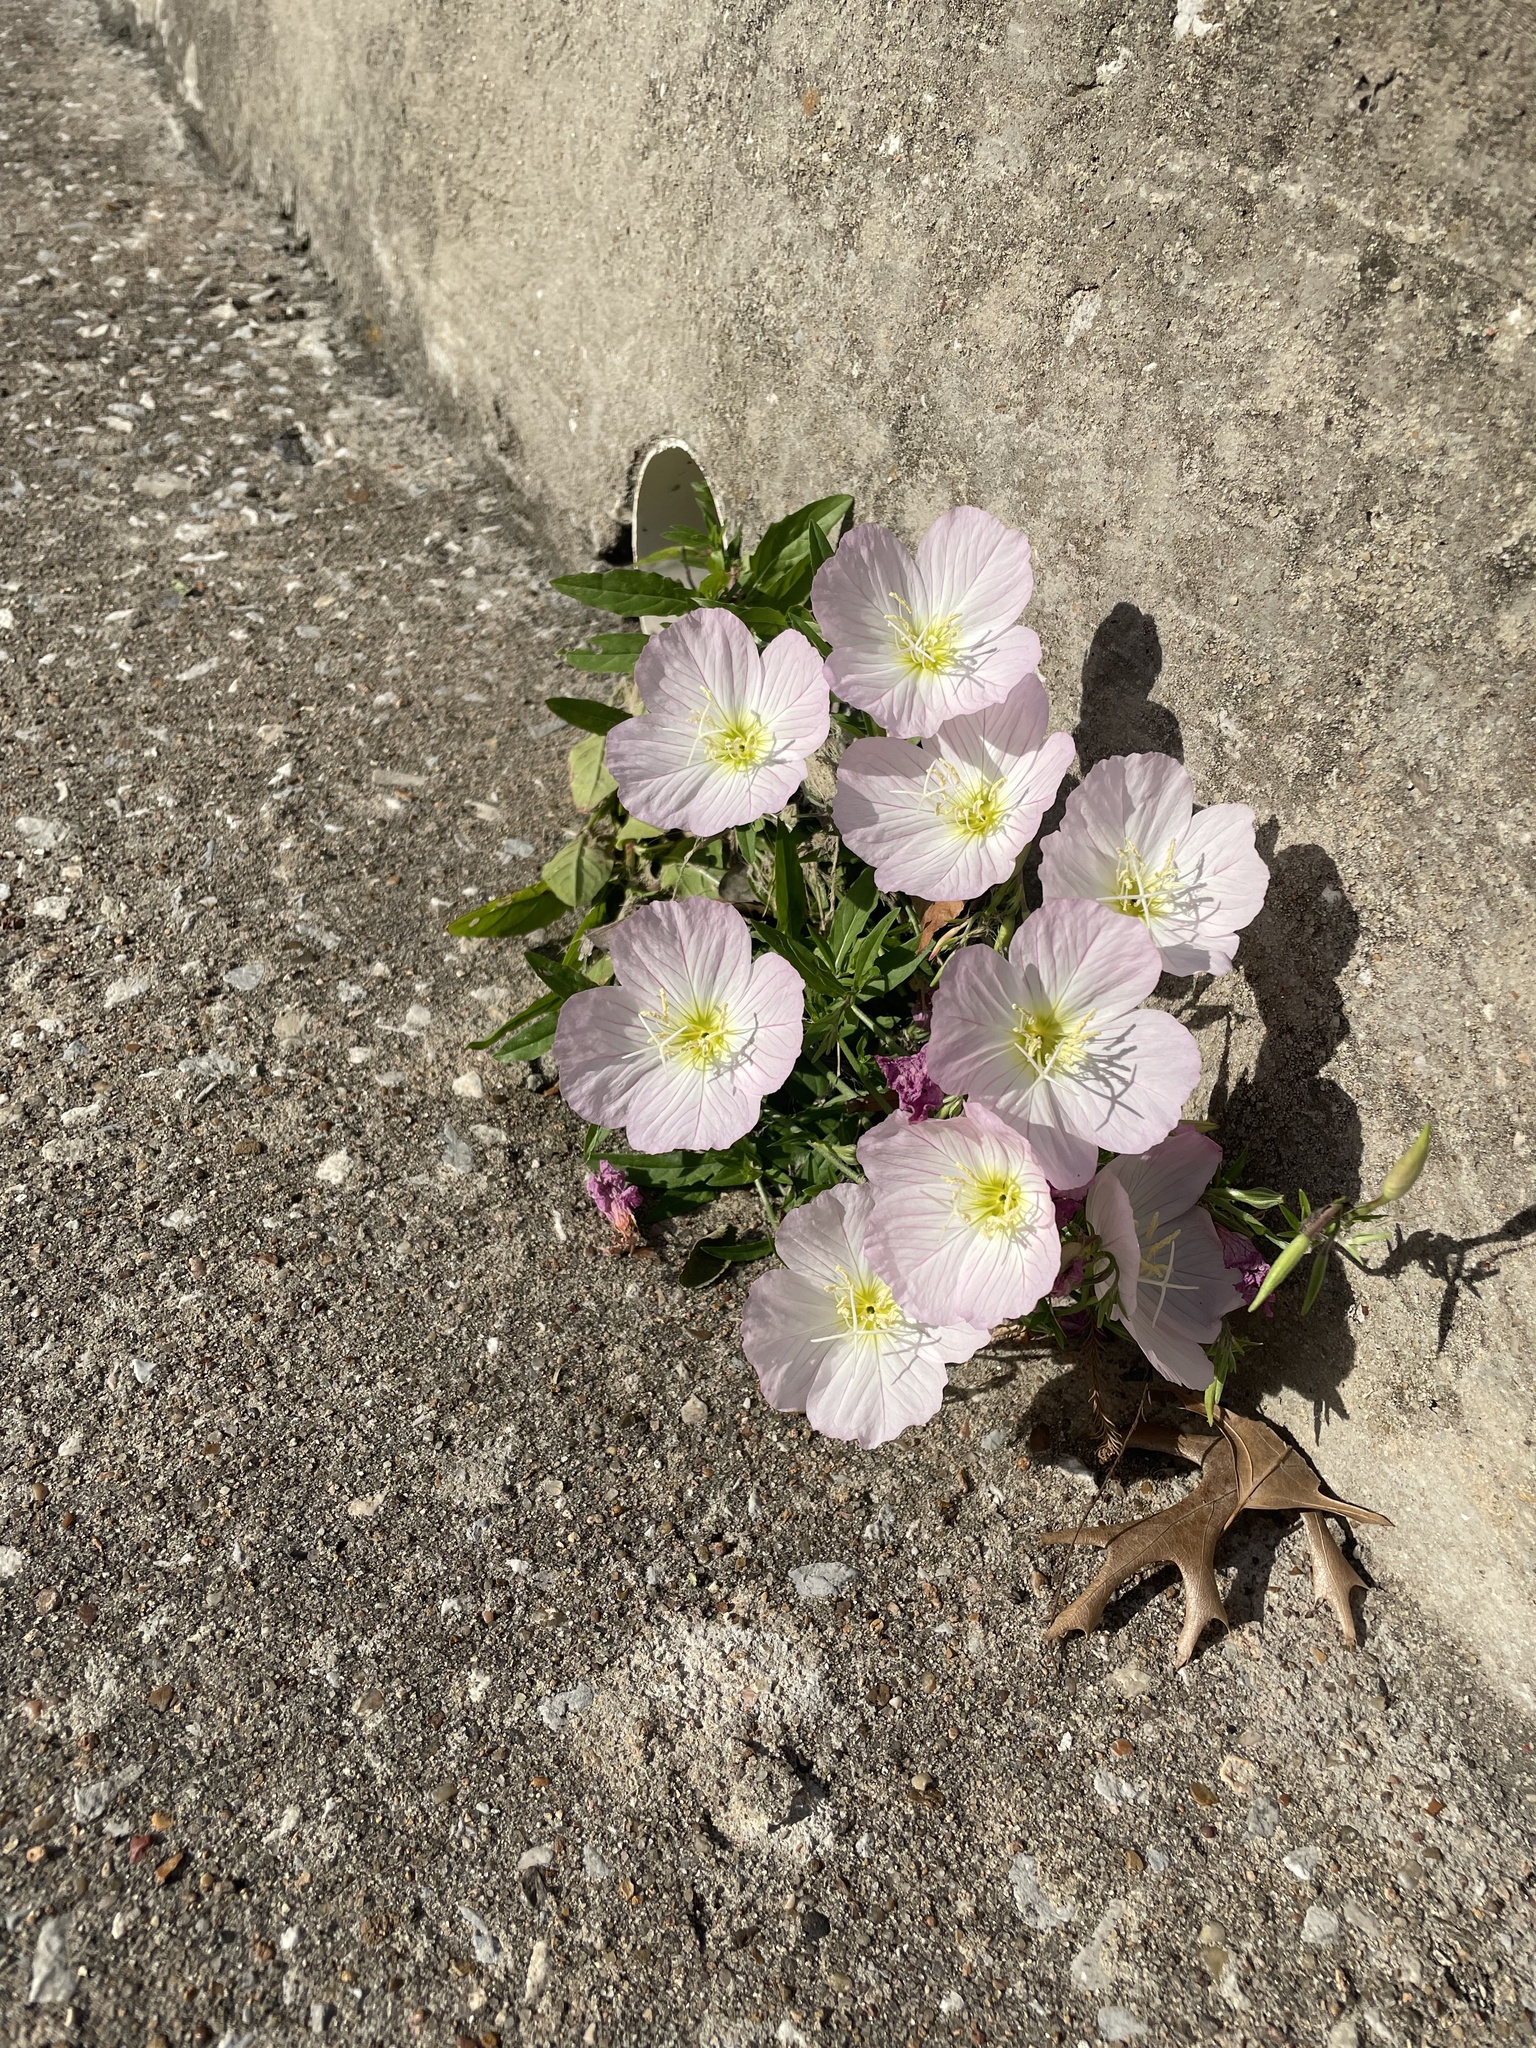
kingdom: Plantae
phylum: Tracheophyta
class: Magnoliopsida
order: Myrtales
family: Onagraceae
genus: Oenothera
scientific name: Oenothera speciosa
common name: White evening-primrose
